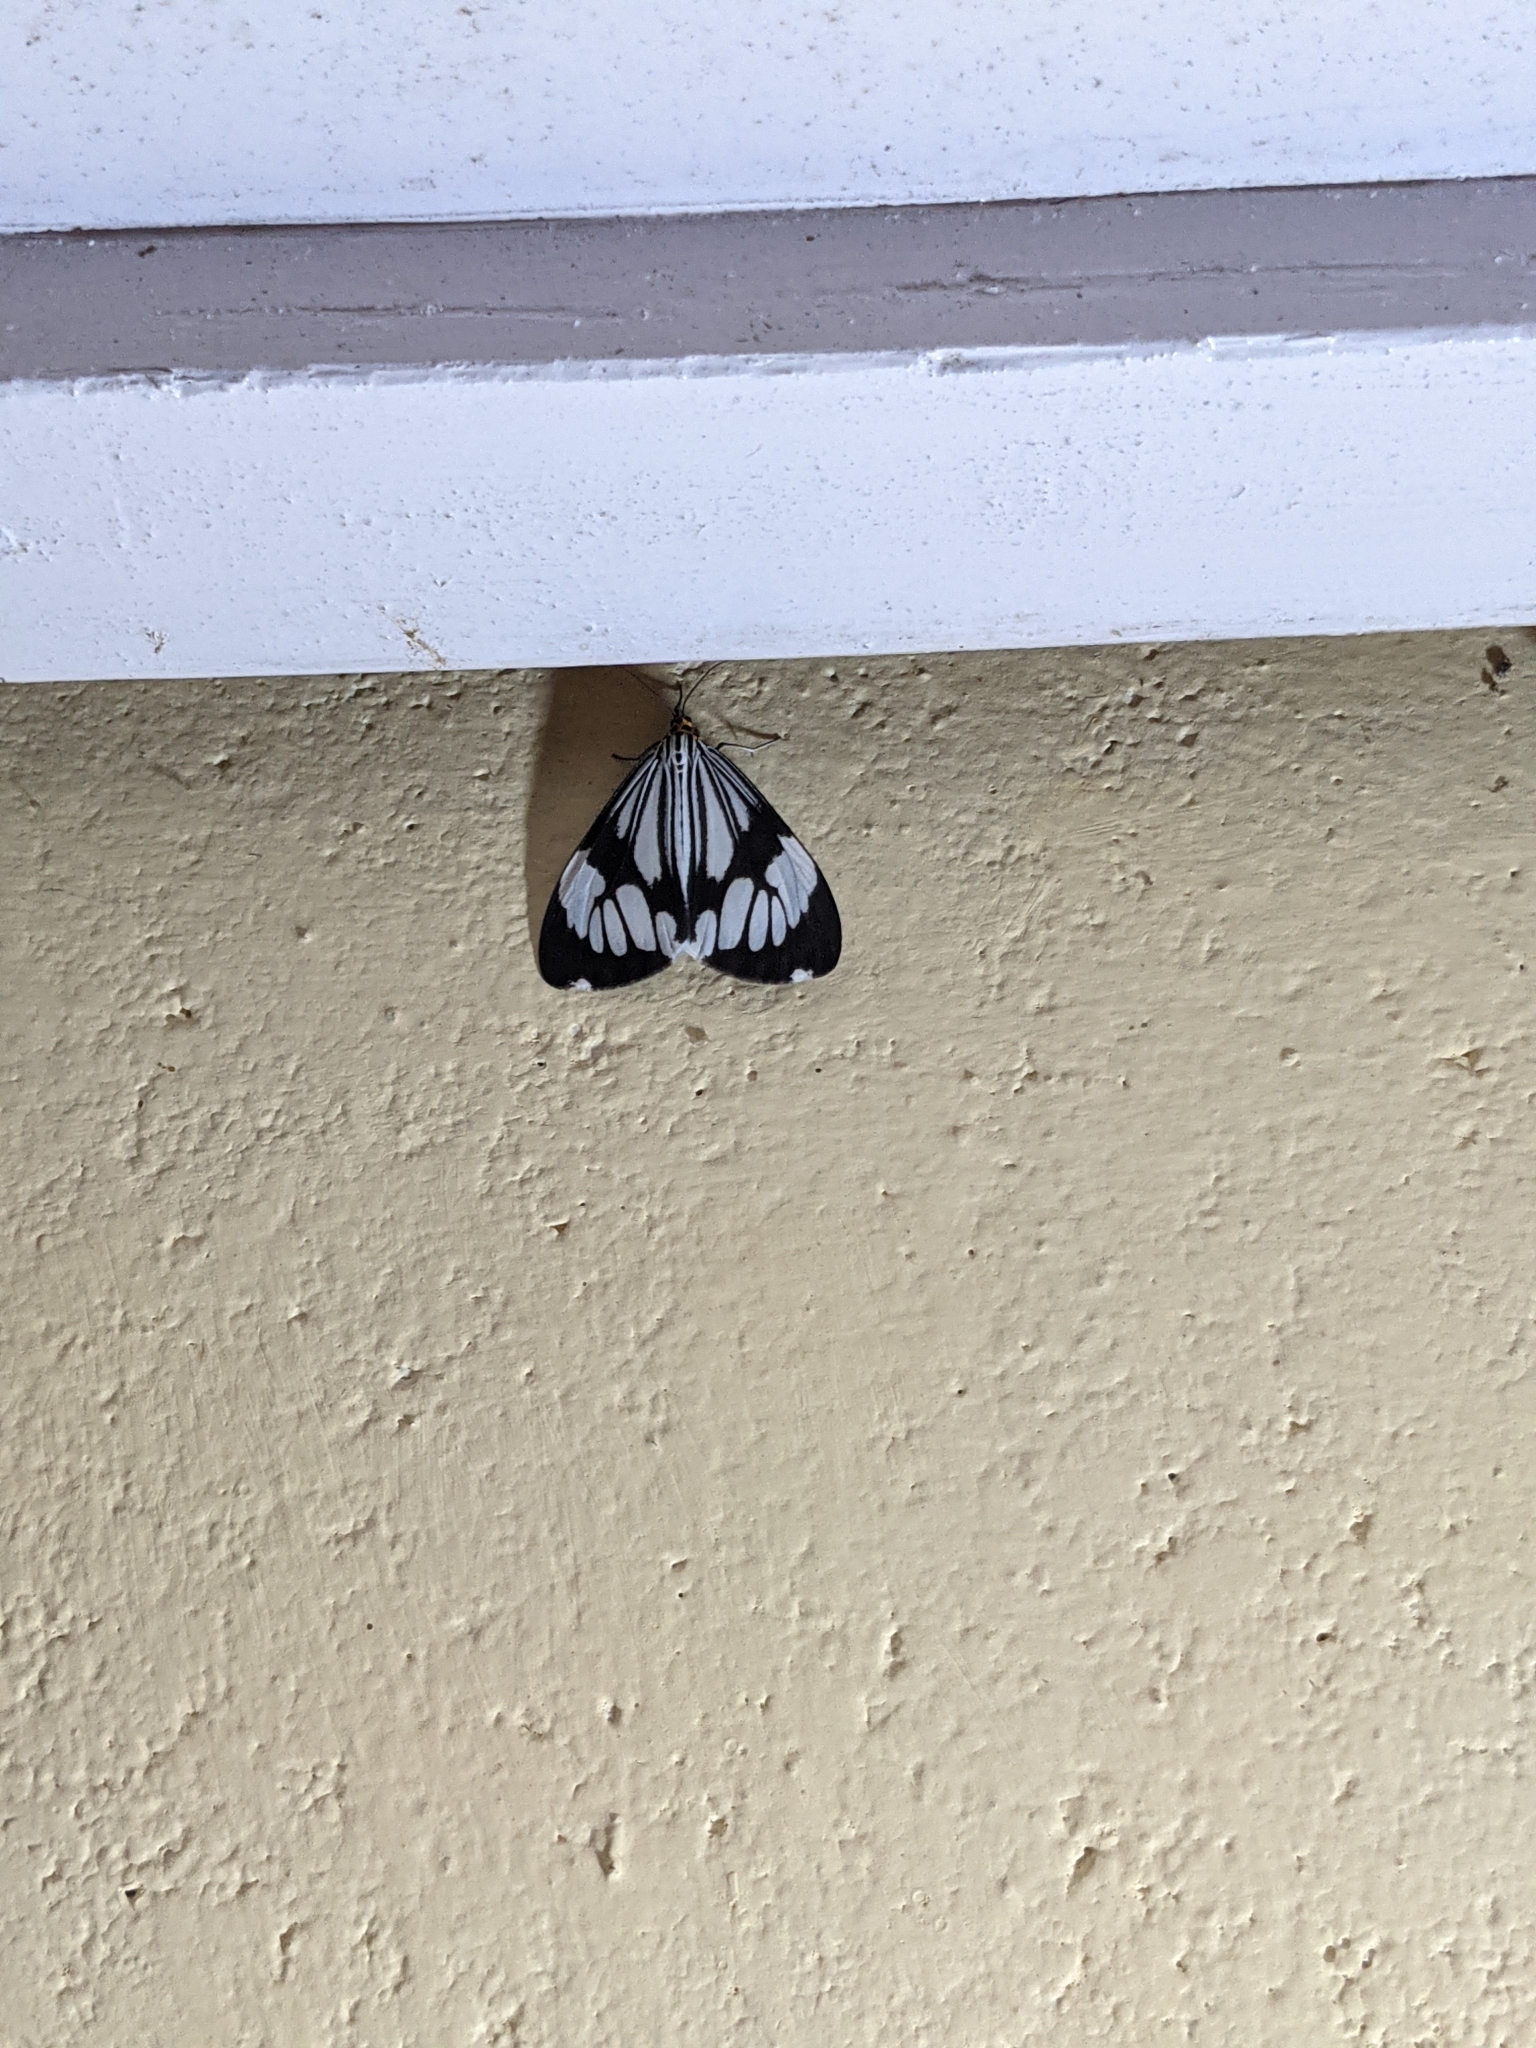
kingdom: Animalia
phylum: Arthropoda
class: Insecta
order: Lepidoptera
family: Erebidae
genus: Nyctemera
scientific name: Nyctemera coleta
